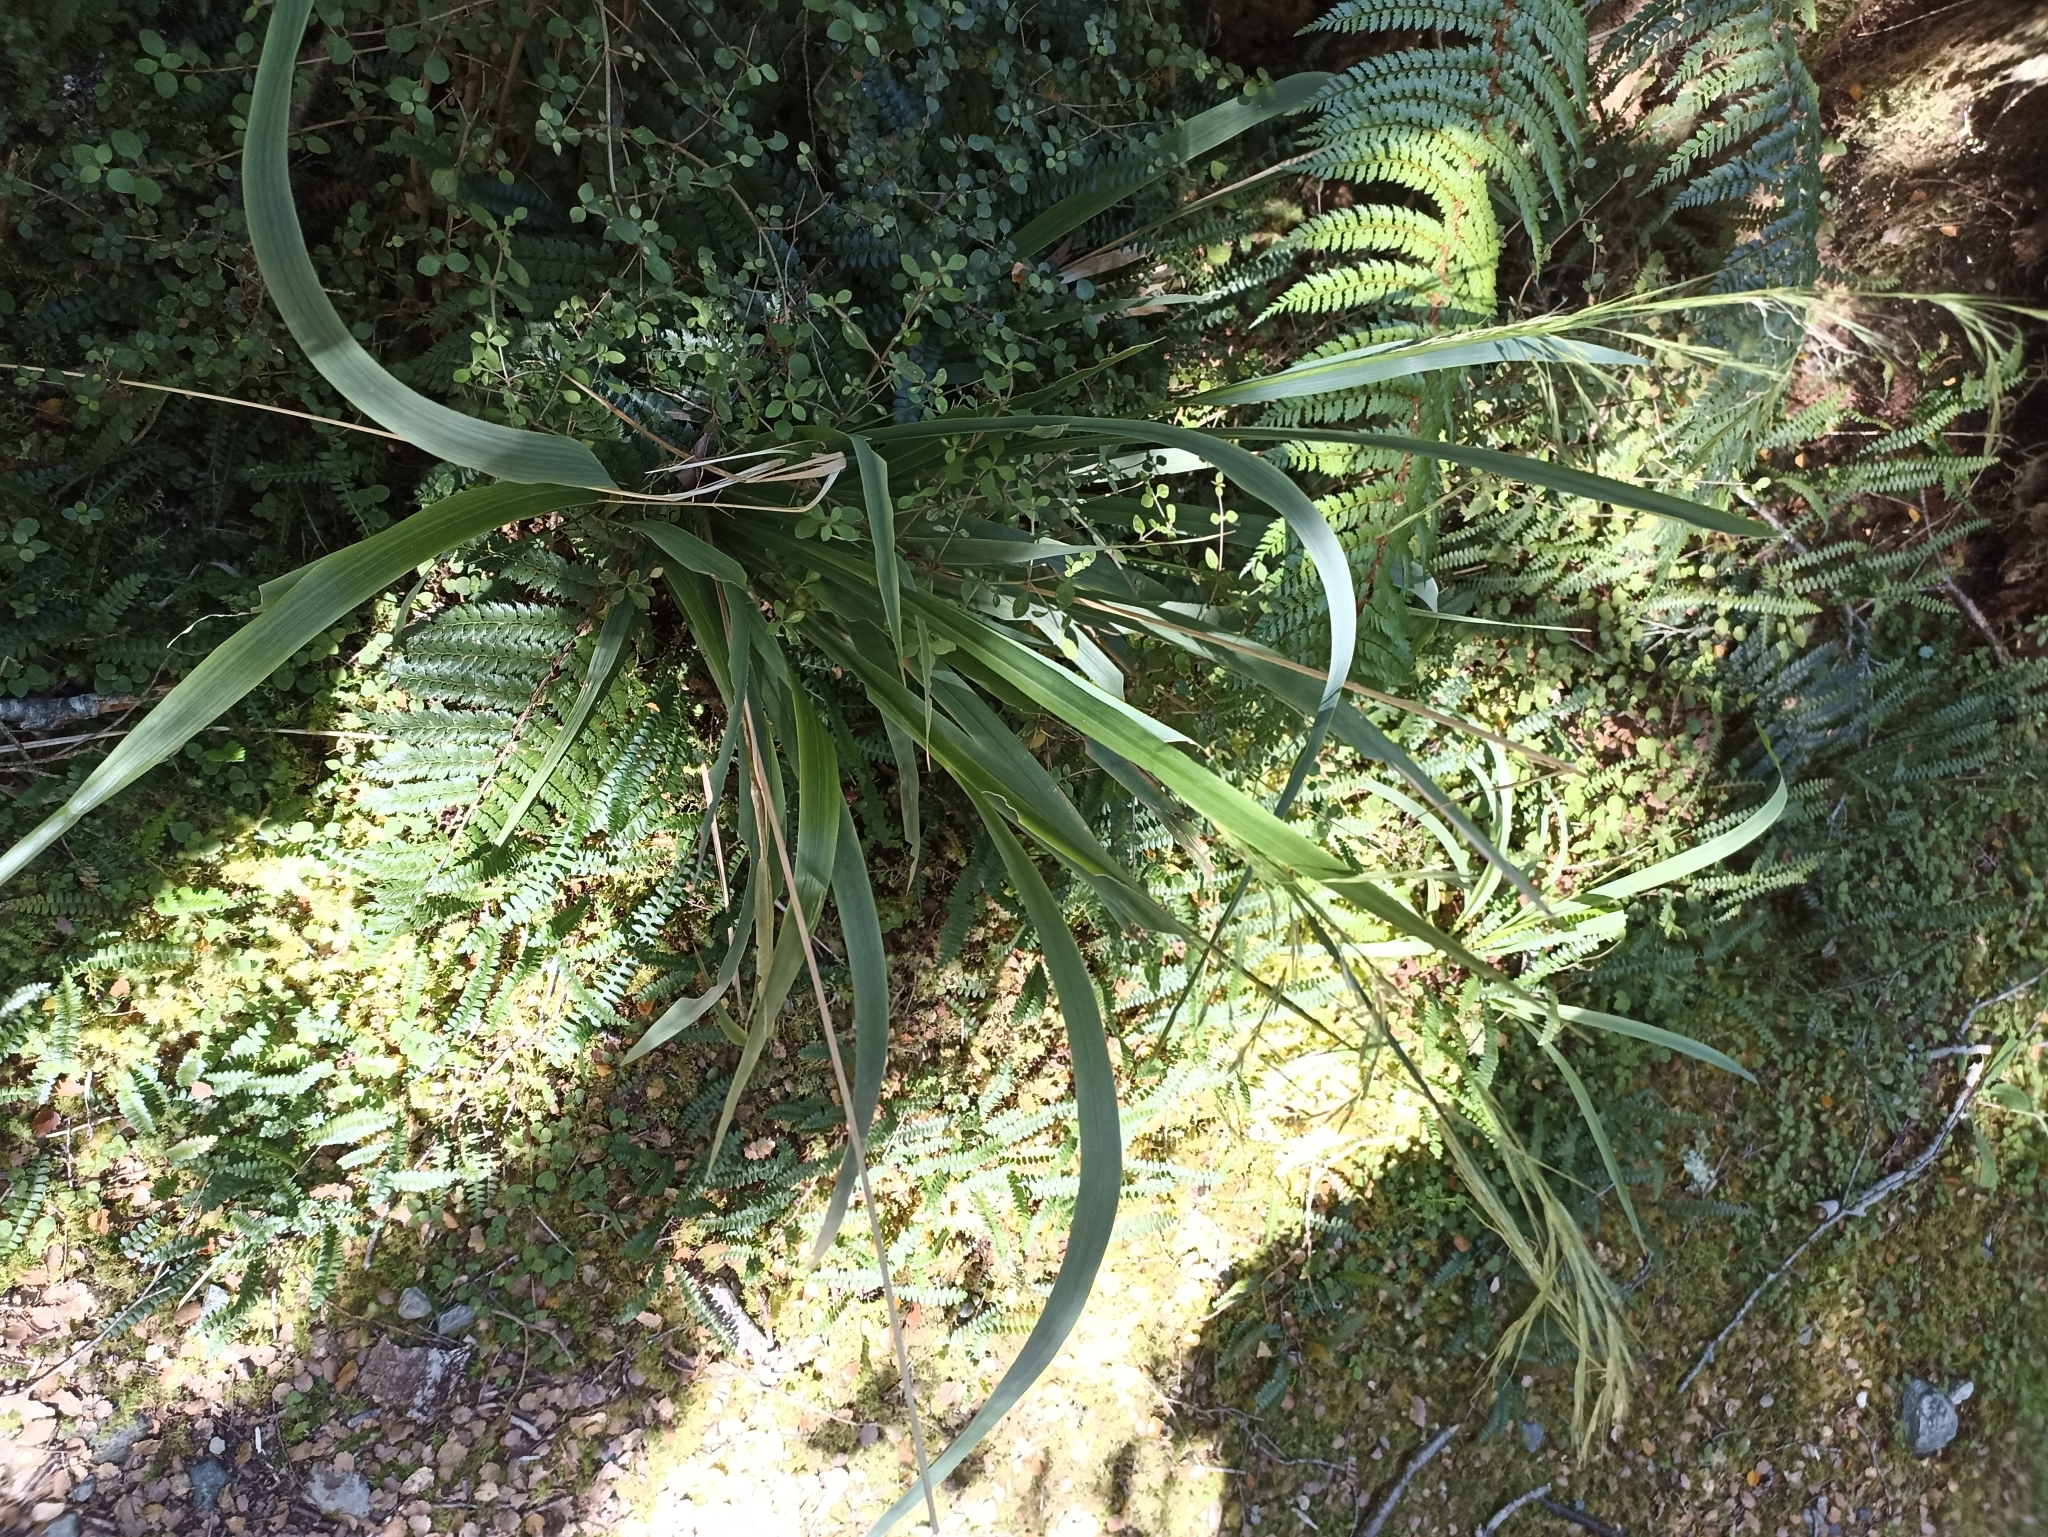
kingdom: Plantae
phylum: Tracheophyta
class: Liliopsida
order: Poales
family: Poaceae
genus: Ehrharta
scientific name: Ehrharta diplax
